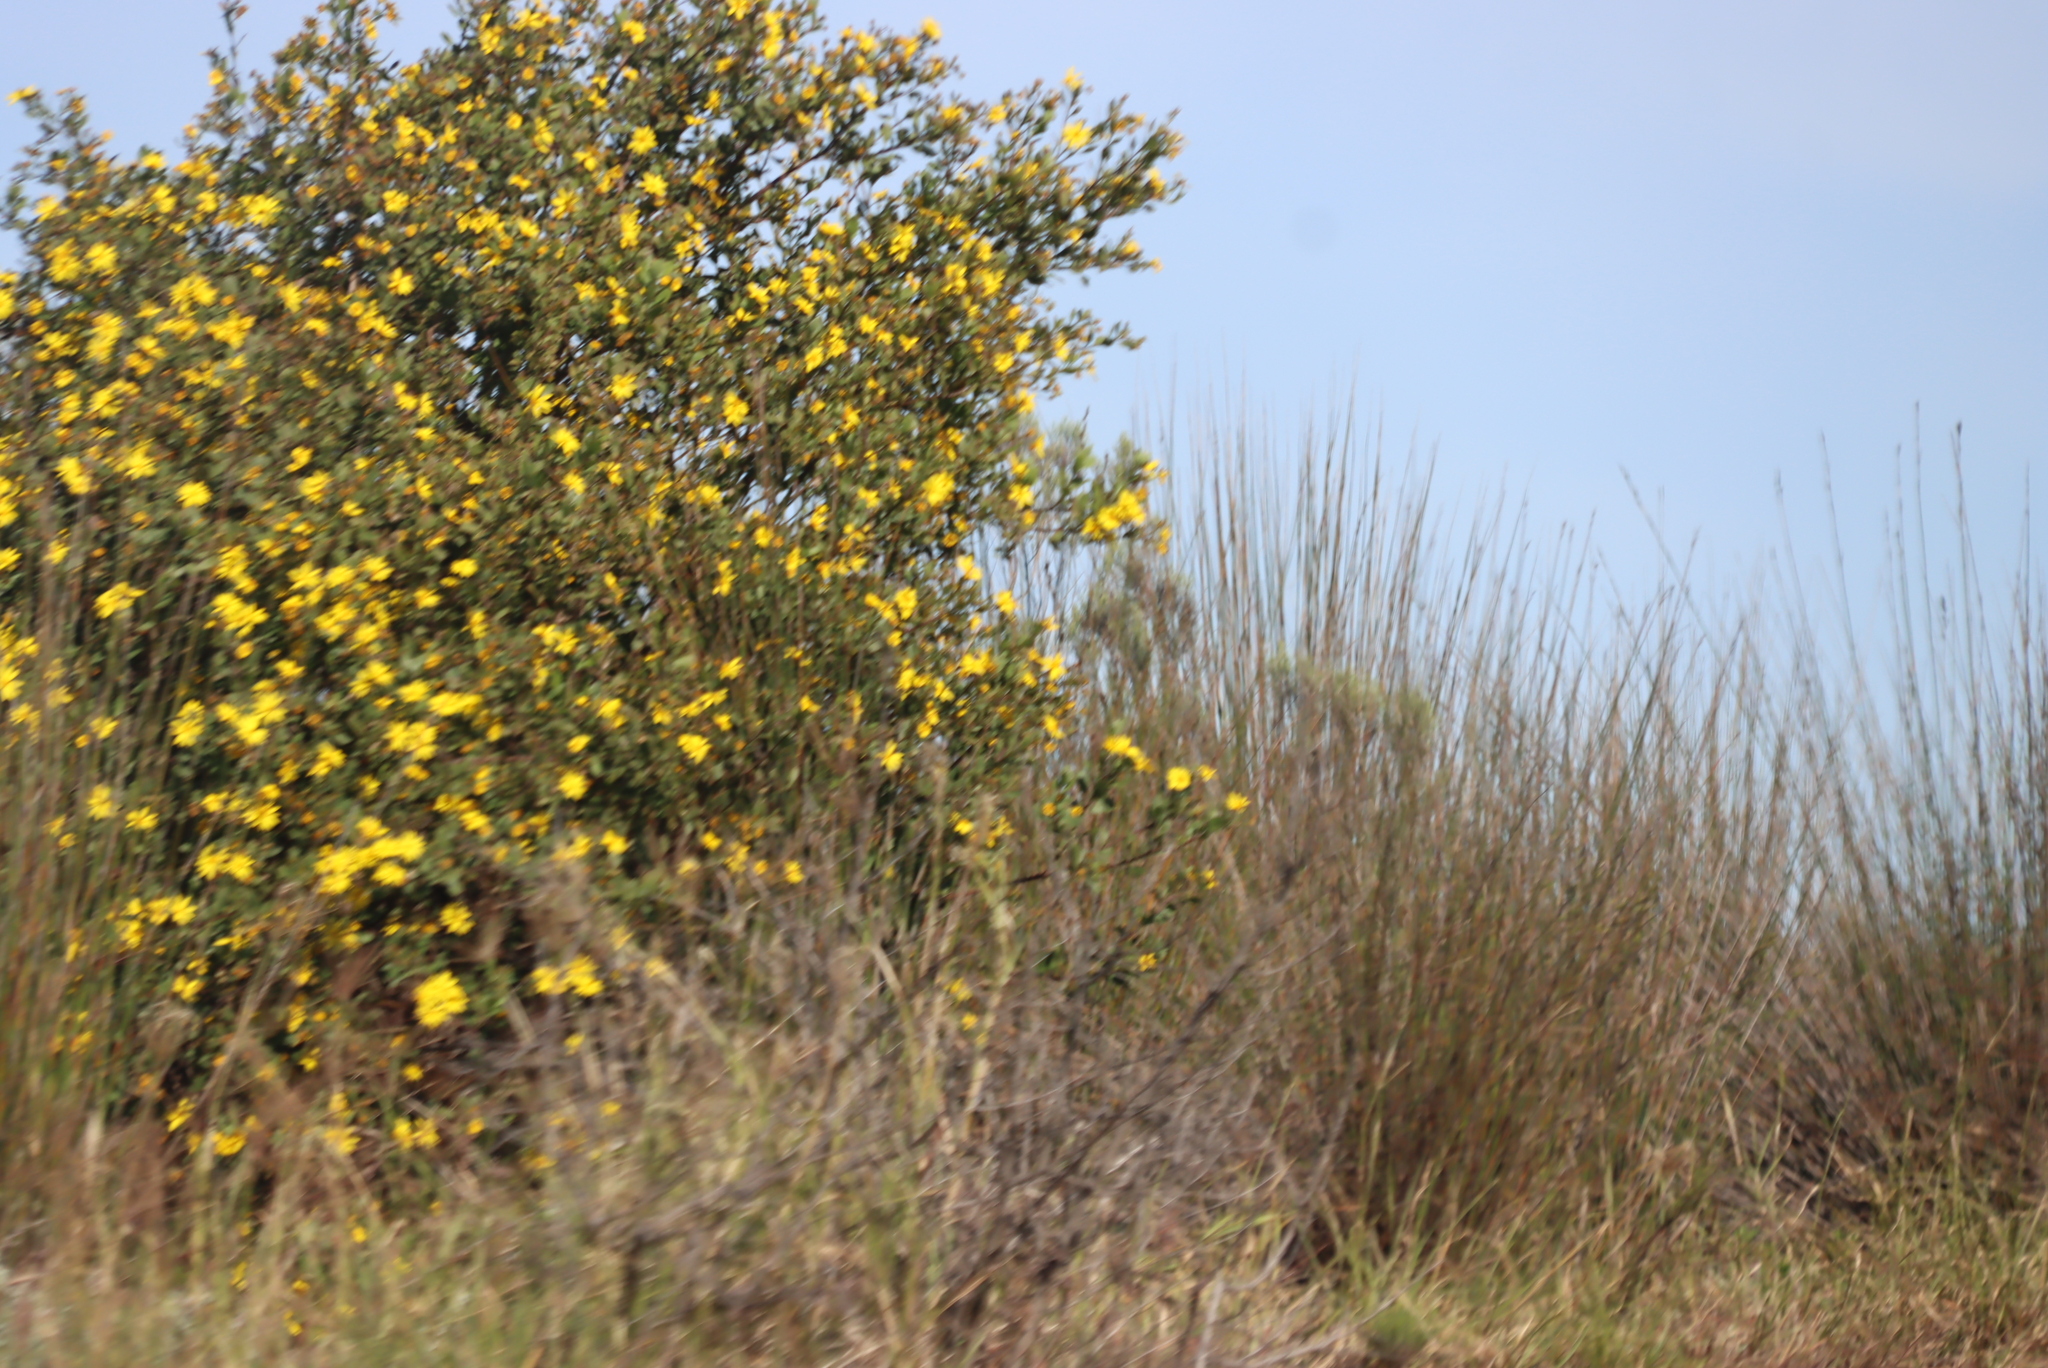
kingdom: Plantae
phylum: Tracheophyta
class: Magnoliopsida
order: Asterales
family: Asteraceae
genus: Osteospermum
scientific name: Osteospermum moniliferum
